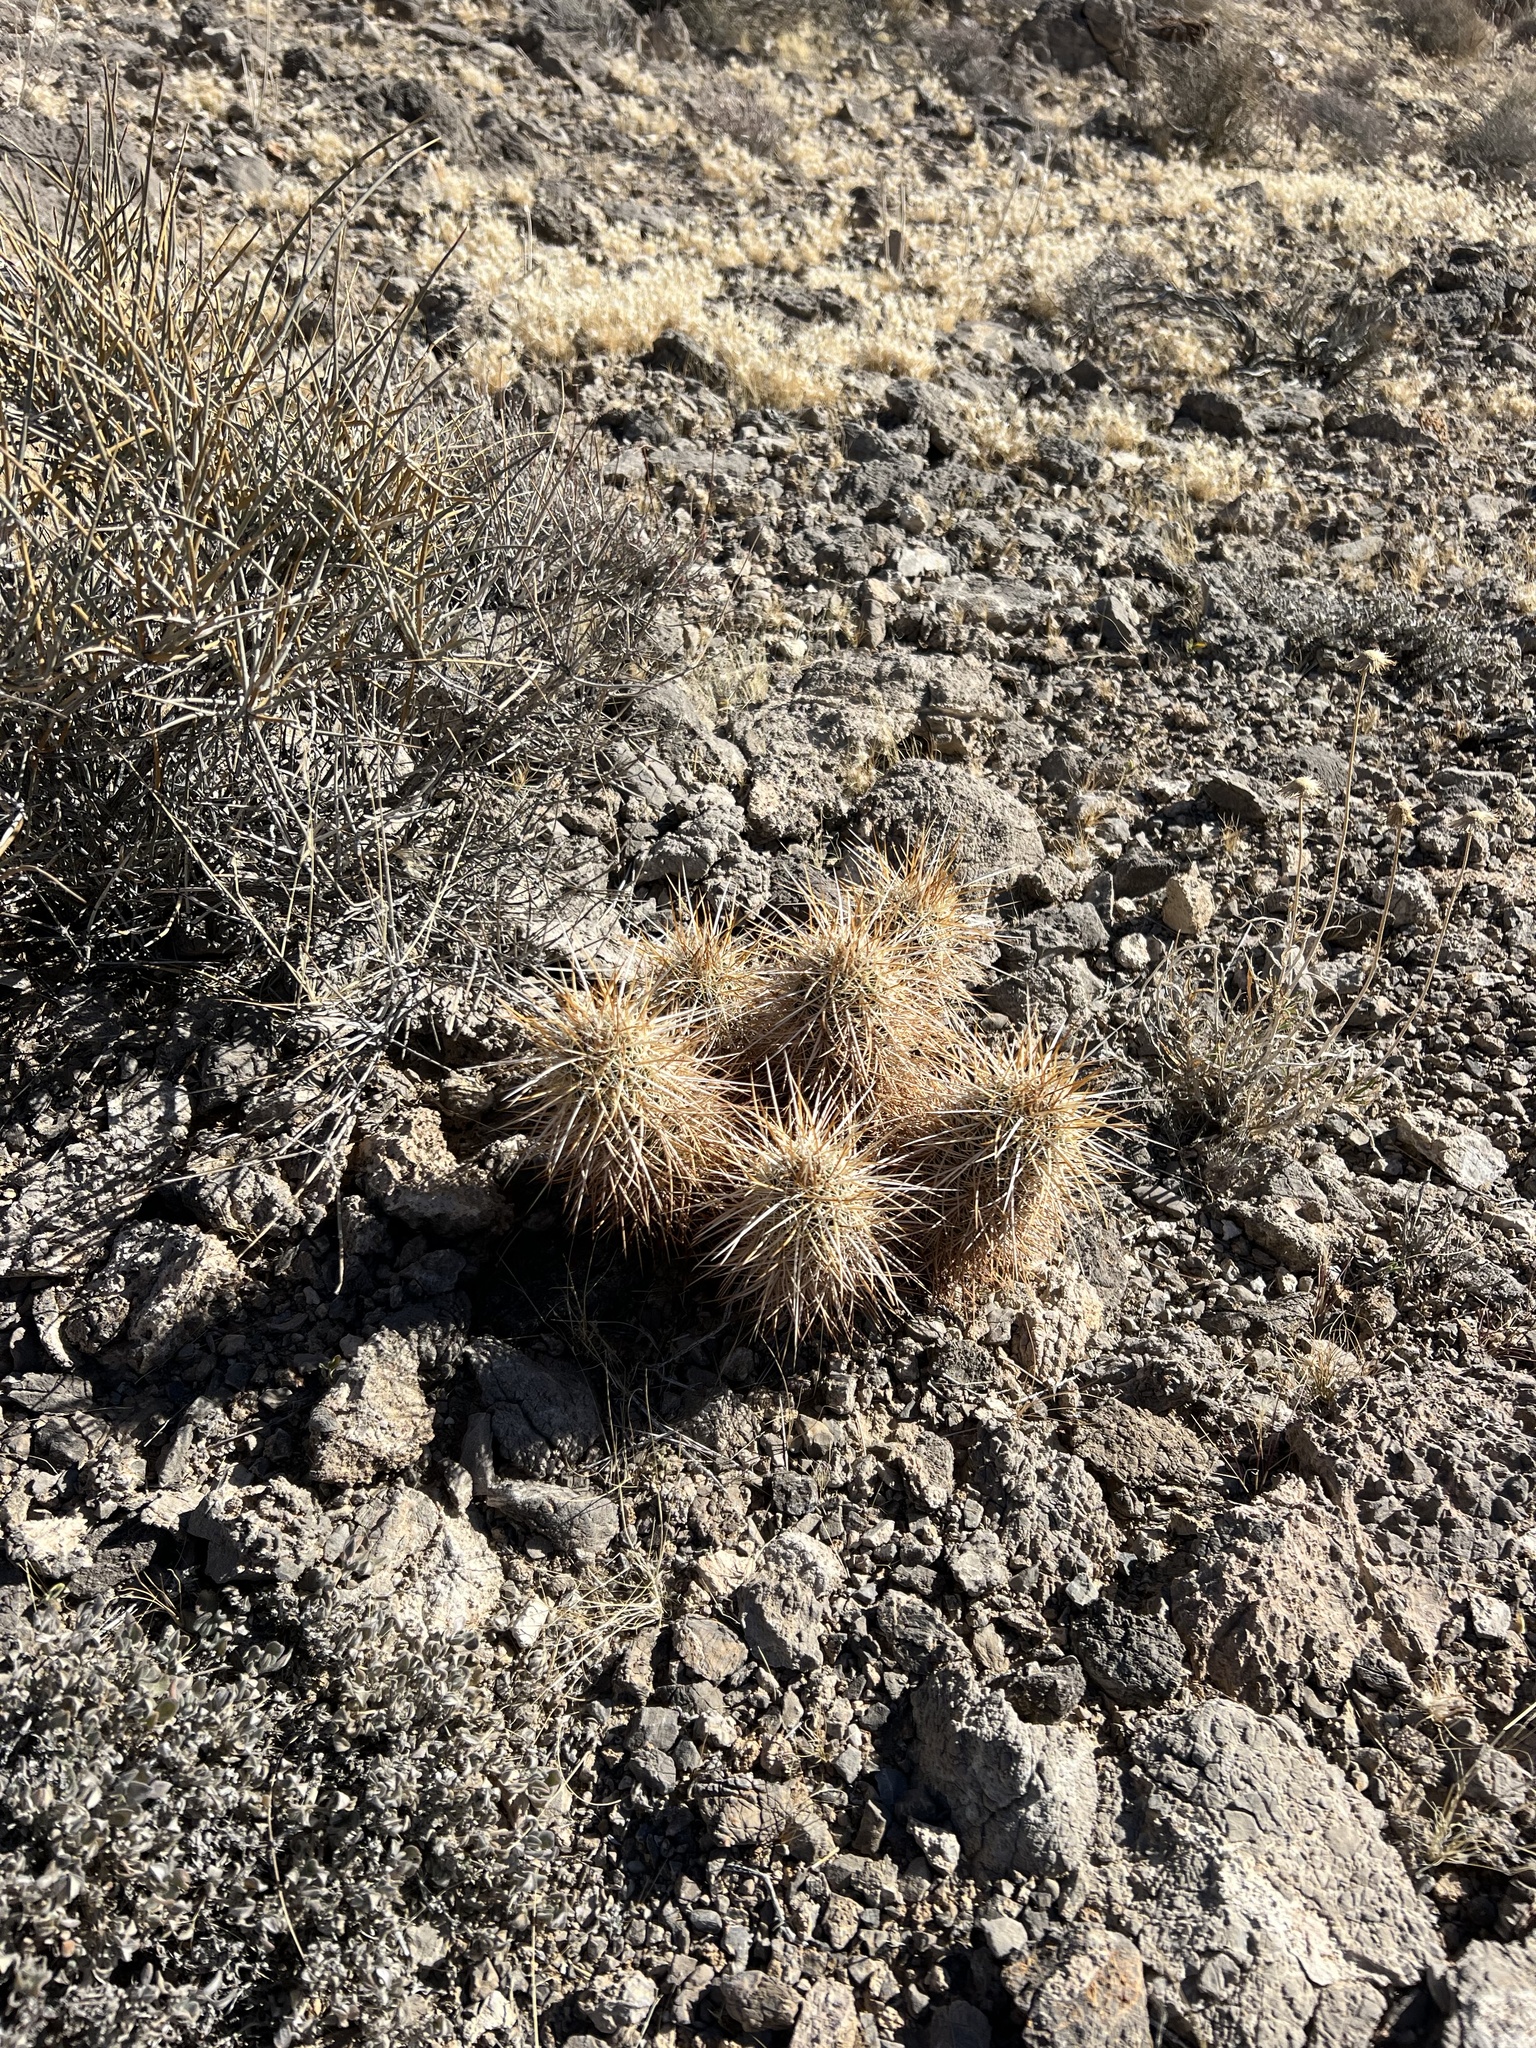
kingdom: Plantae
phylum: Tracheophyta
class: Magnoliopsida
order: Caryophyllales
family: Cactaceae
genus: Echinocereus
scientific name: Echinocereus engelmannii
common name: Engelmann's hedgehog cactus
